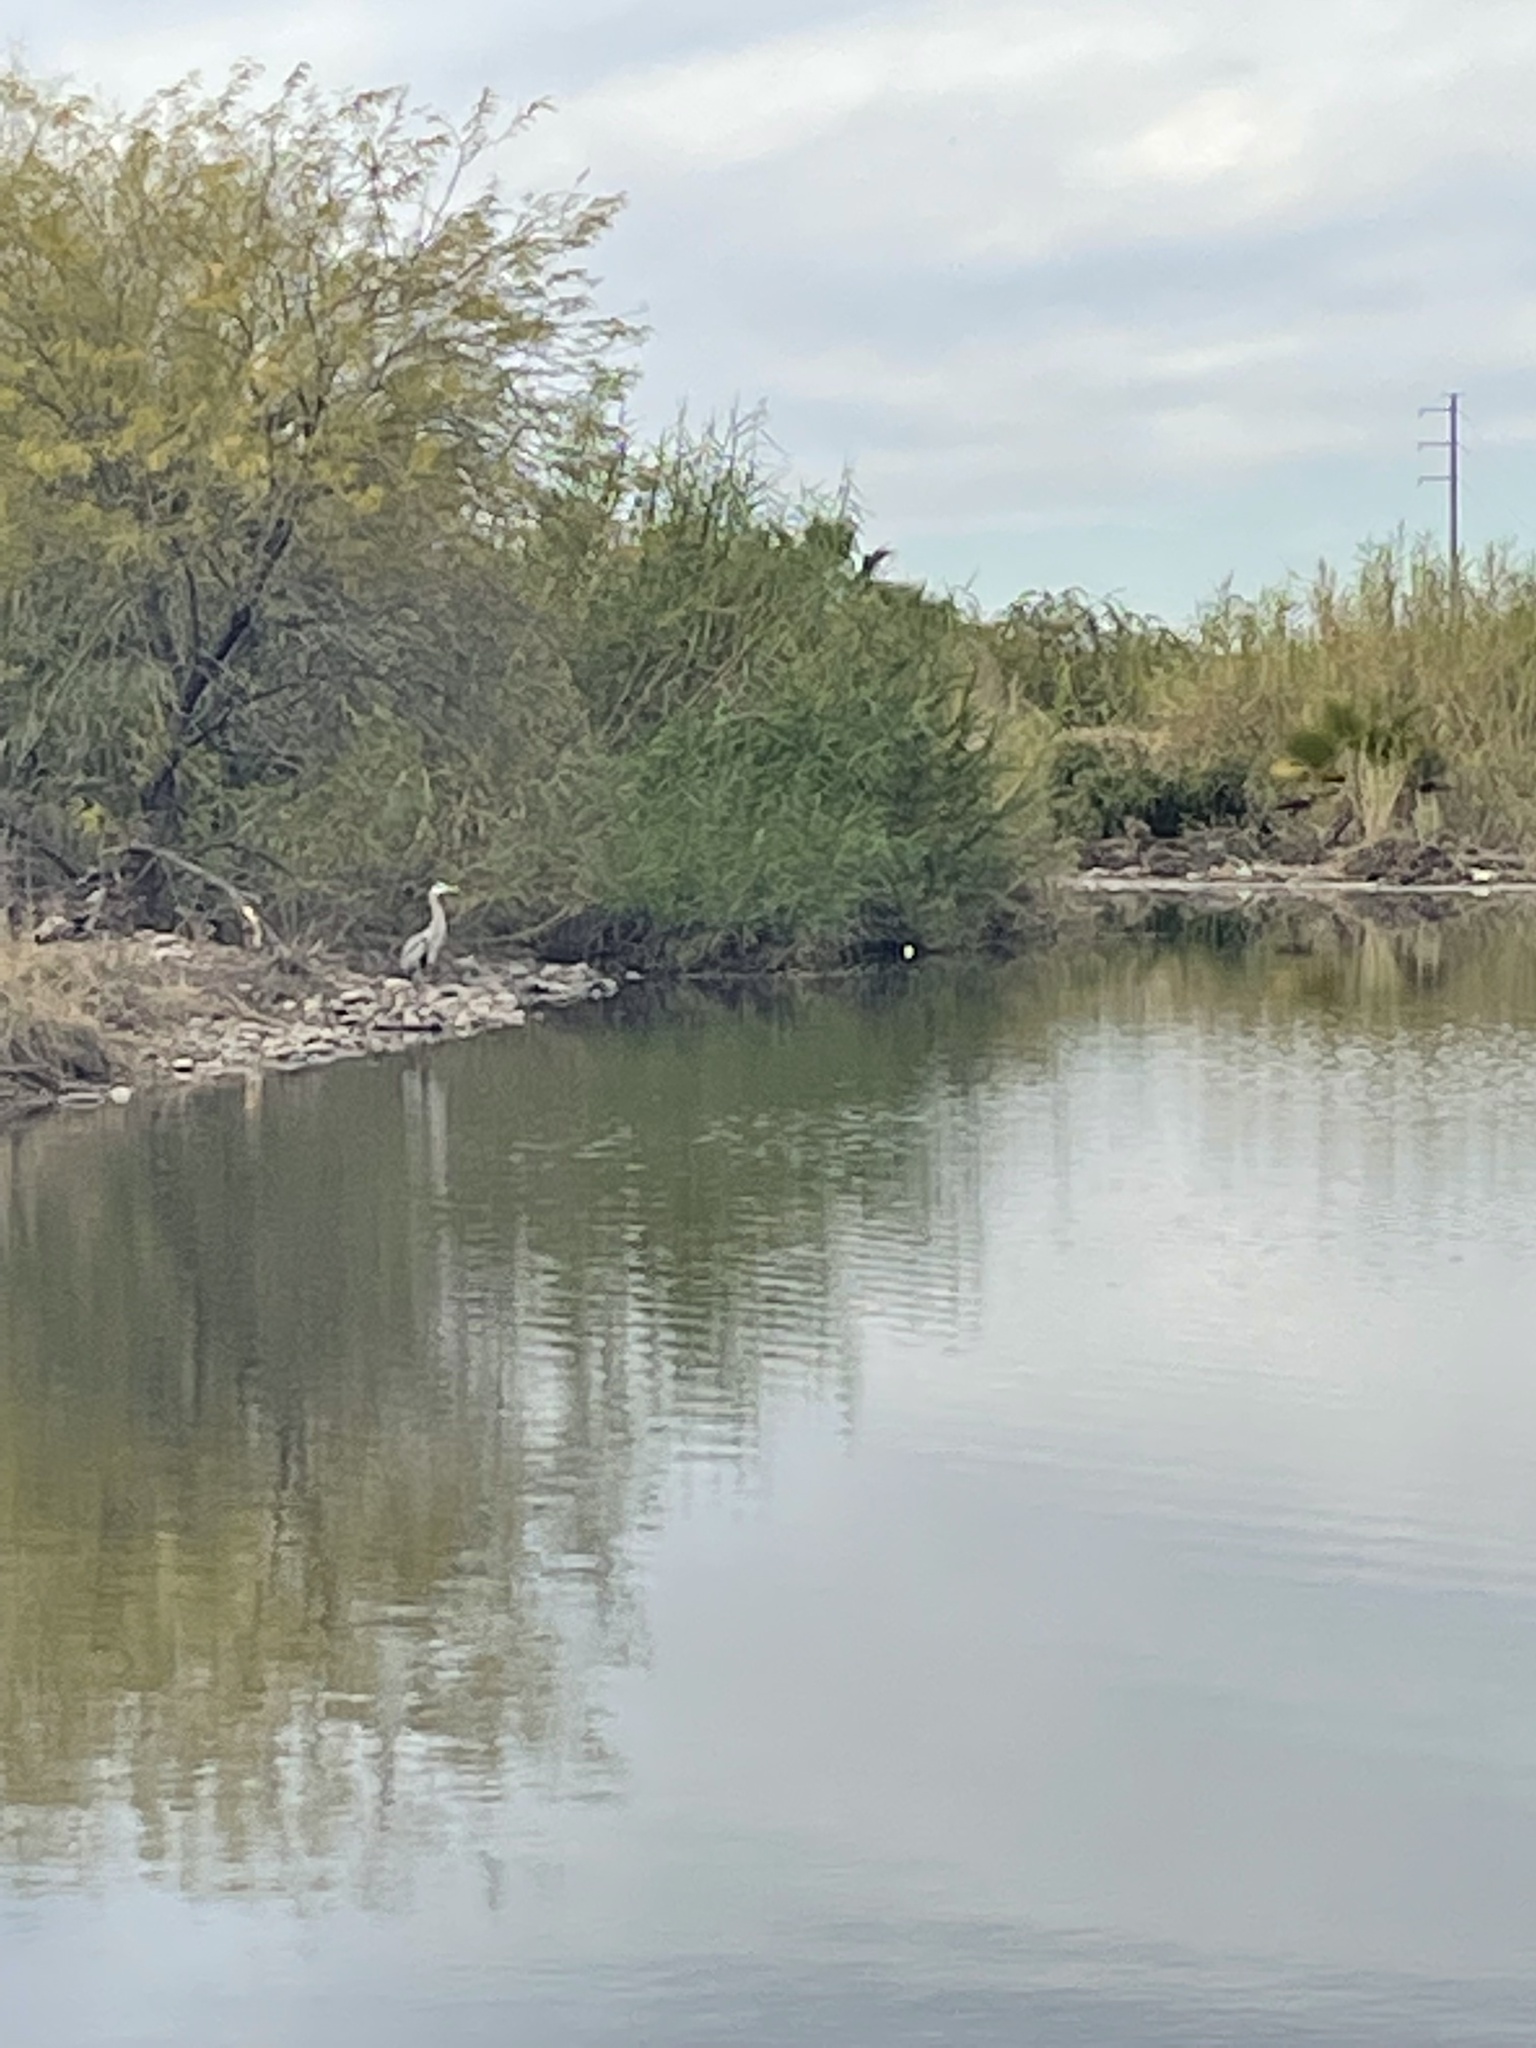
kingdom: Animalia
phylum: Chordata
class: Aves
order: Pelecaniformes
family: Ardeidae
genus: Ardea
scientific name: Ardea herodias
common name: Great blue heron
